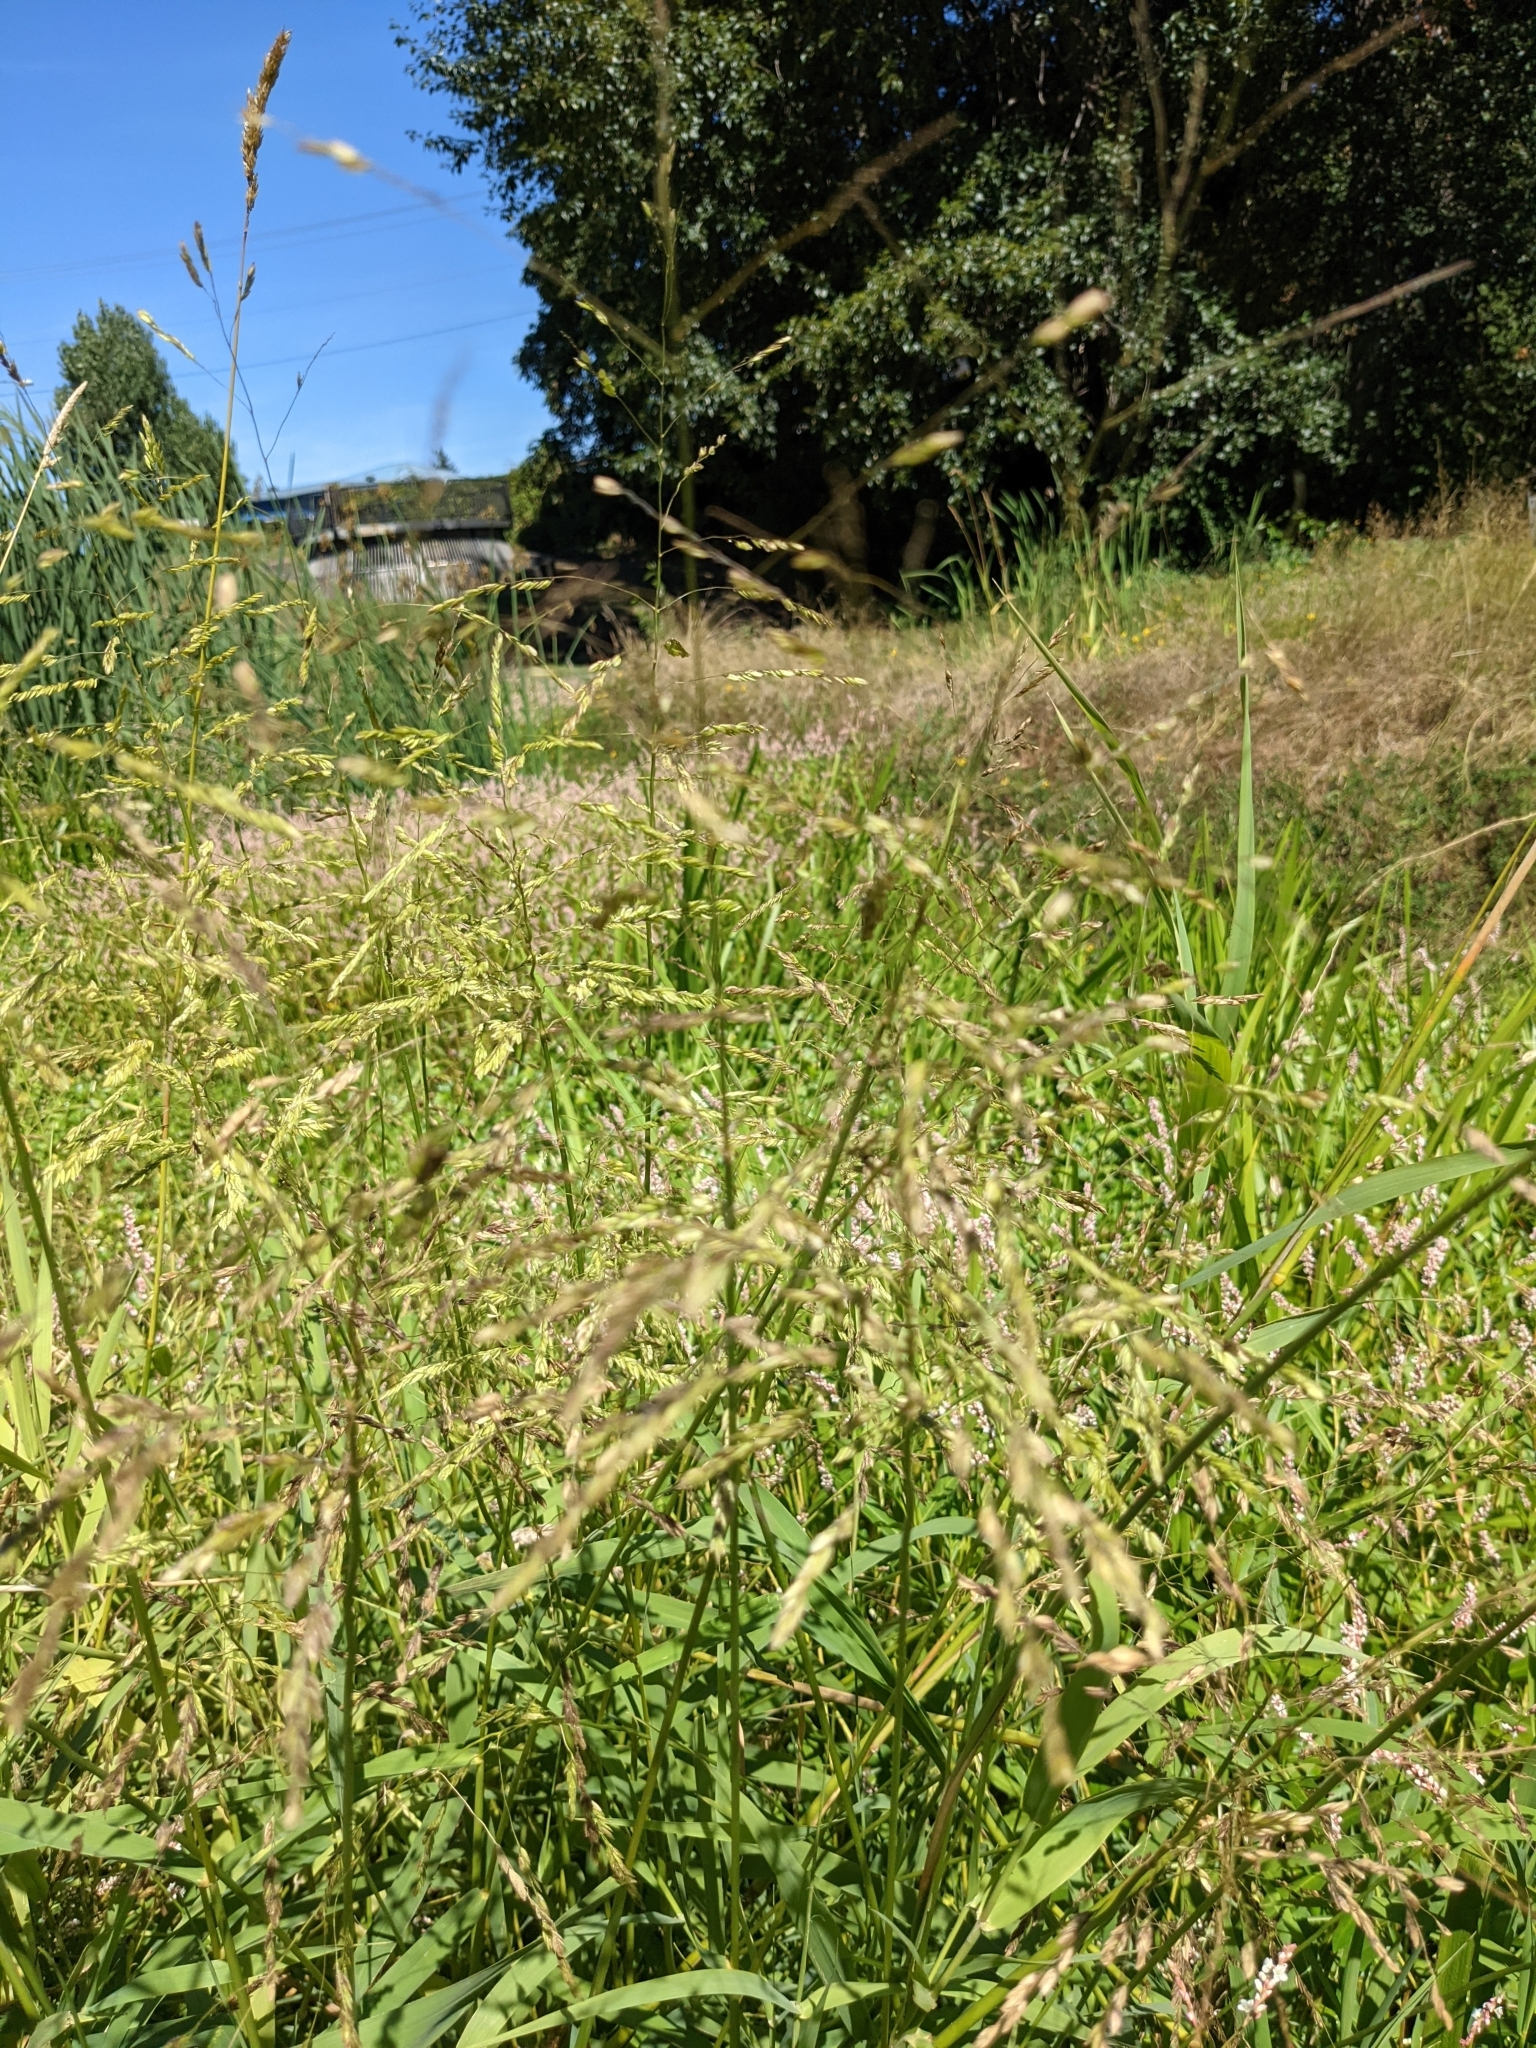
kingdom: Plantae
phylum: Tracheophyta
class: Liliopsida
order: Poales
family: Poaceae
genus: Leersia
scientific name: Leersia oryzoides
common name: Cut-grass
